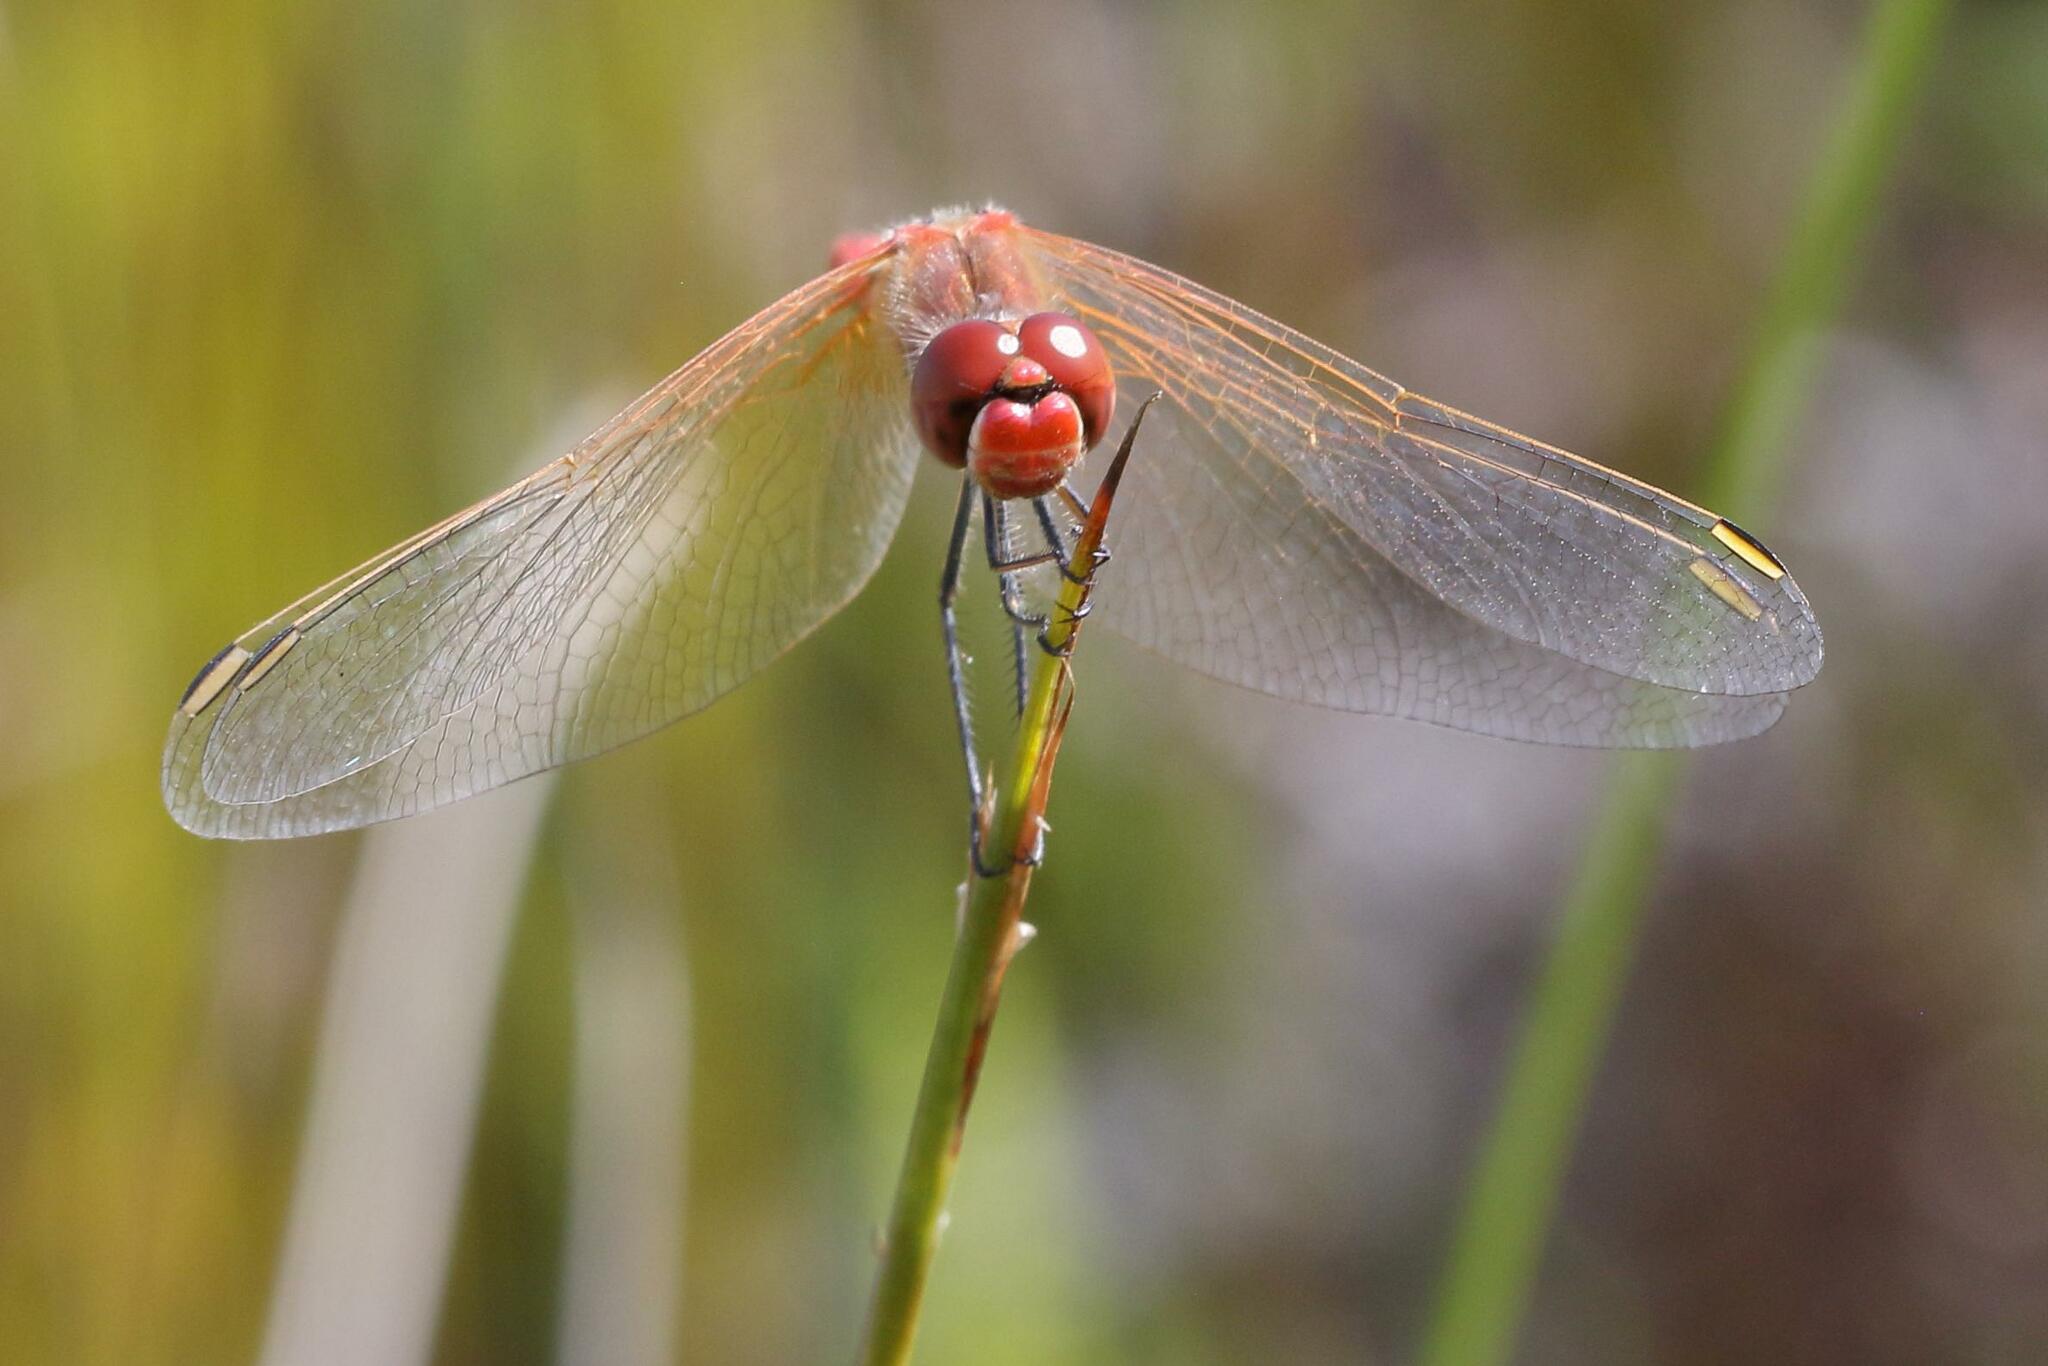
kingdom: Animalia
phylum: Arthropoda
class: Insecta
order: Odonata
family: Libellulidae
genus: Sympetrum
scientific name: Sympetrum fonscolombii
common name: Red-veined darter
